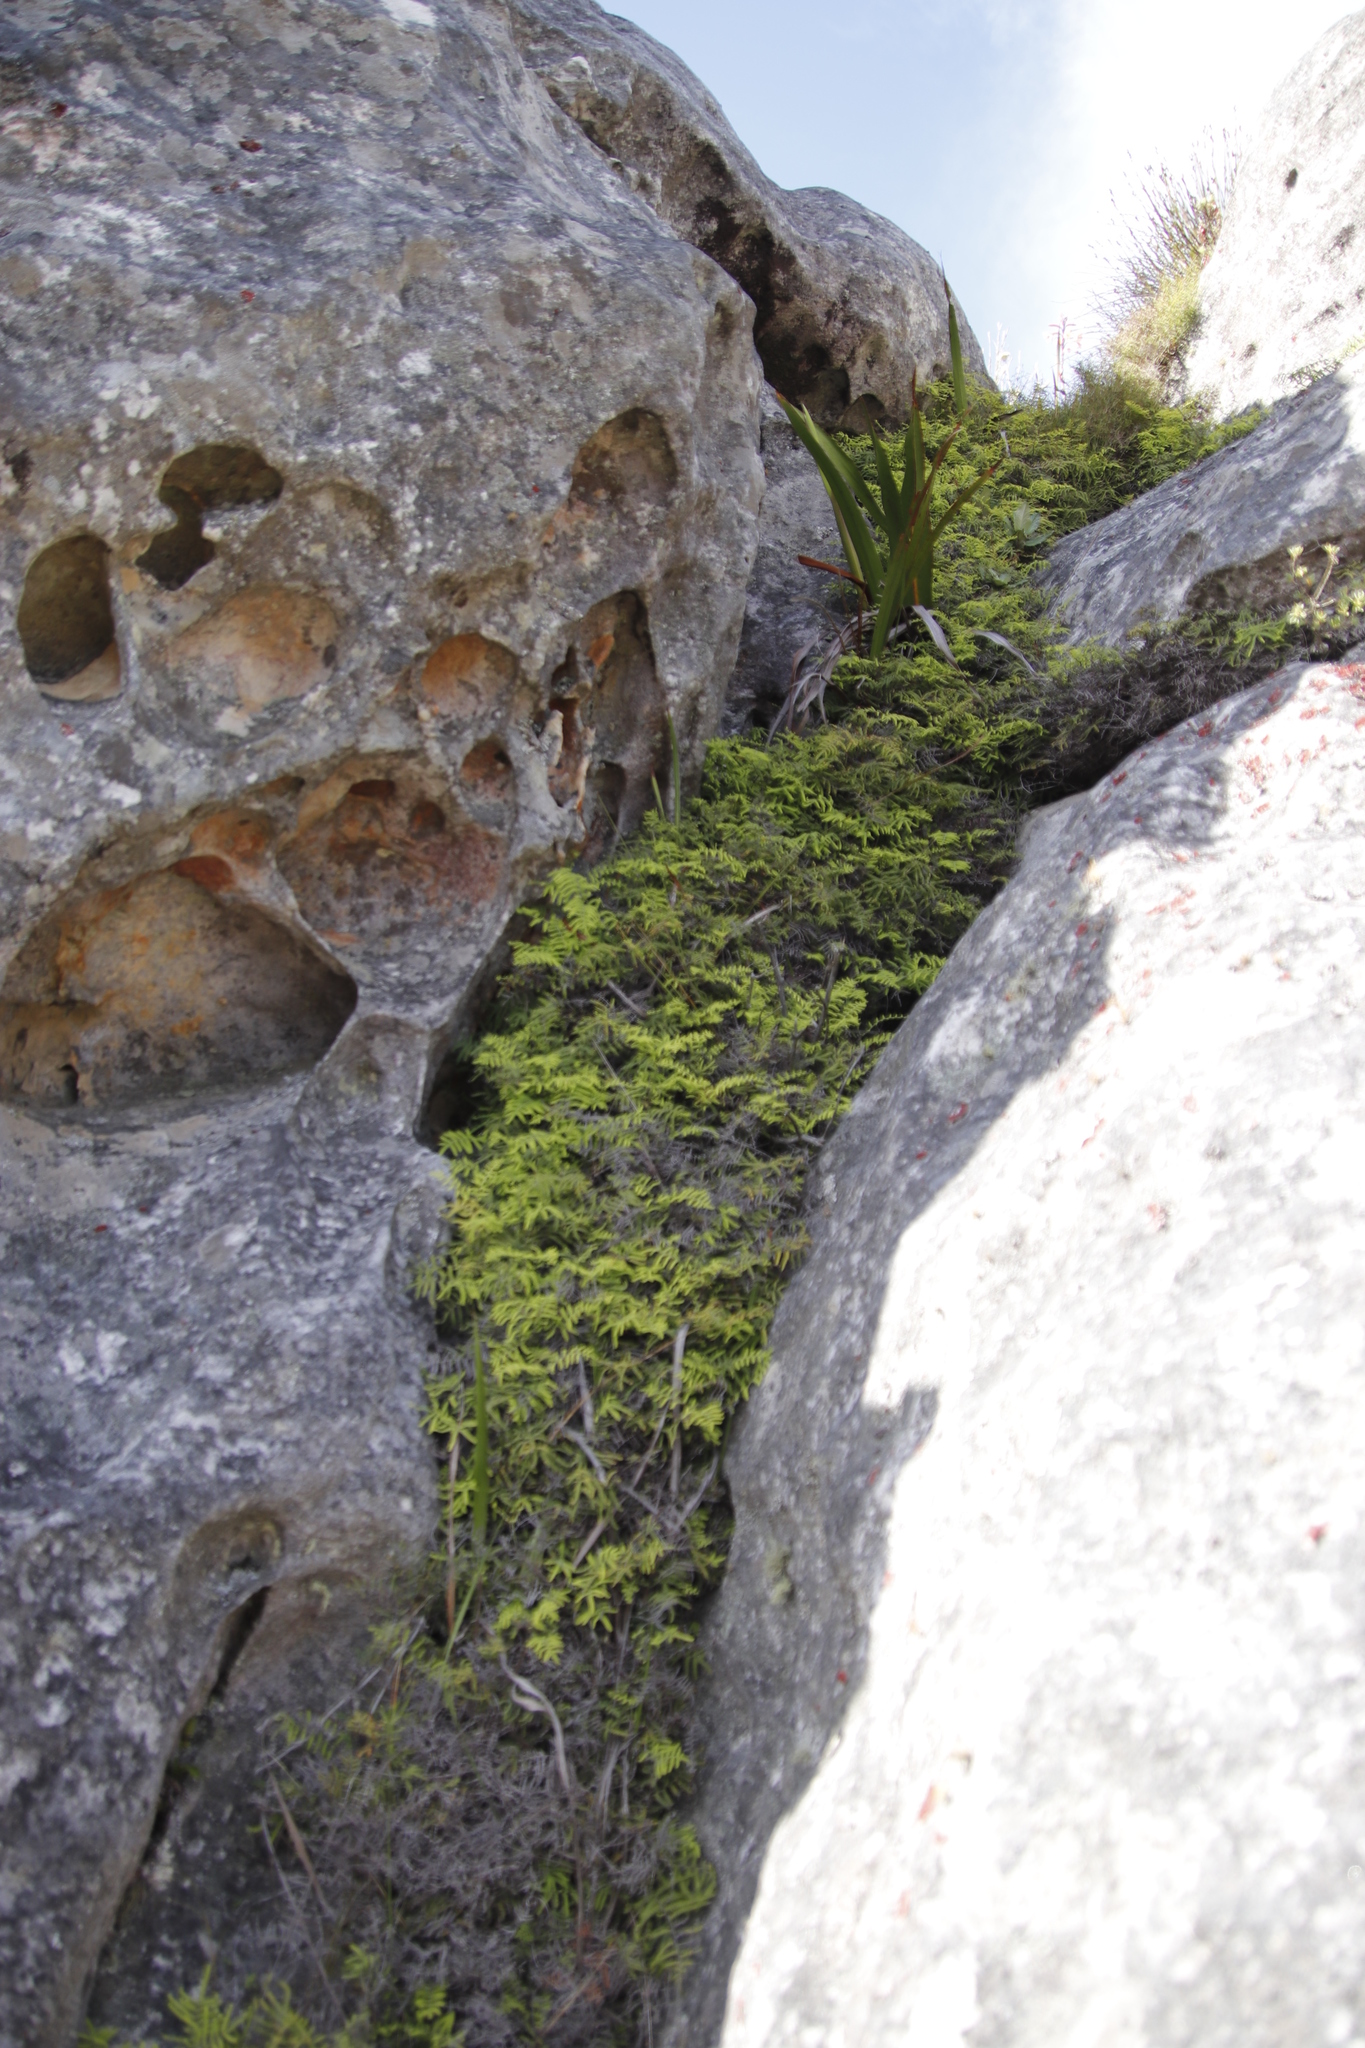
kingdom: Plantae
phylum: Tracheophyta
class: Polypodiopsida
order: Gleicheniales
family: Gleicheniaceae
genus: Gleichenia
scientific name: Gleichenia polypodioides
